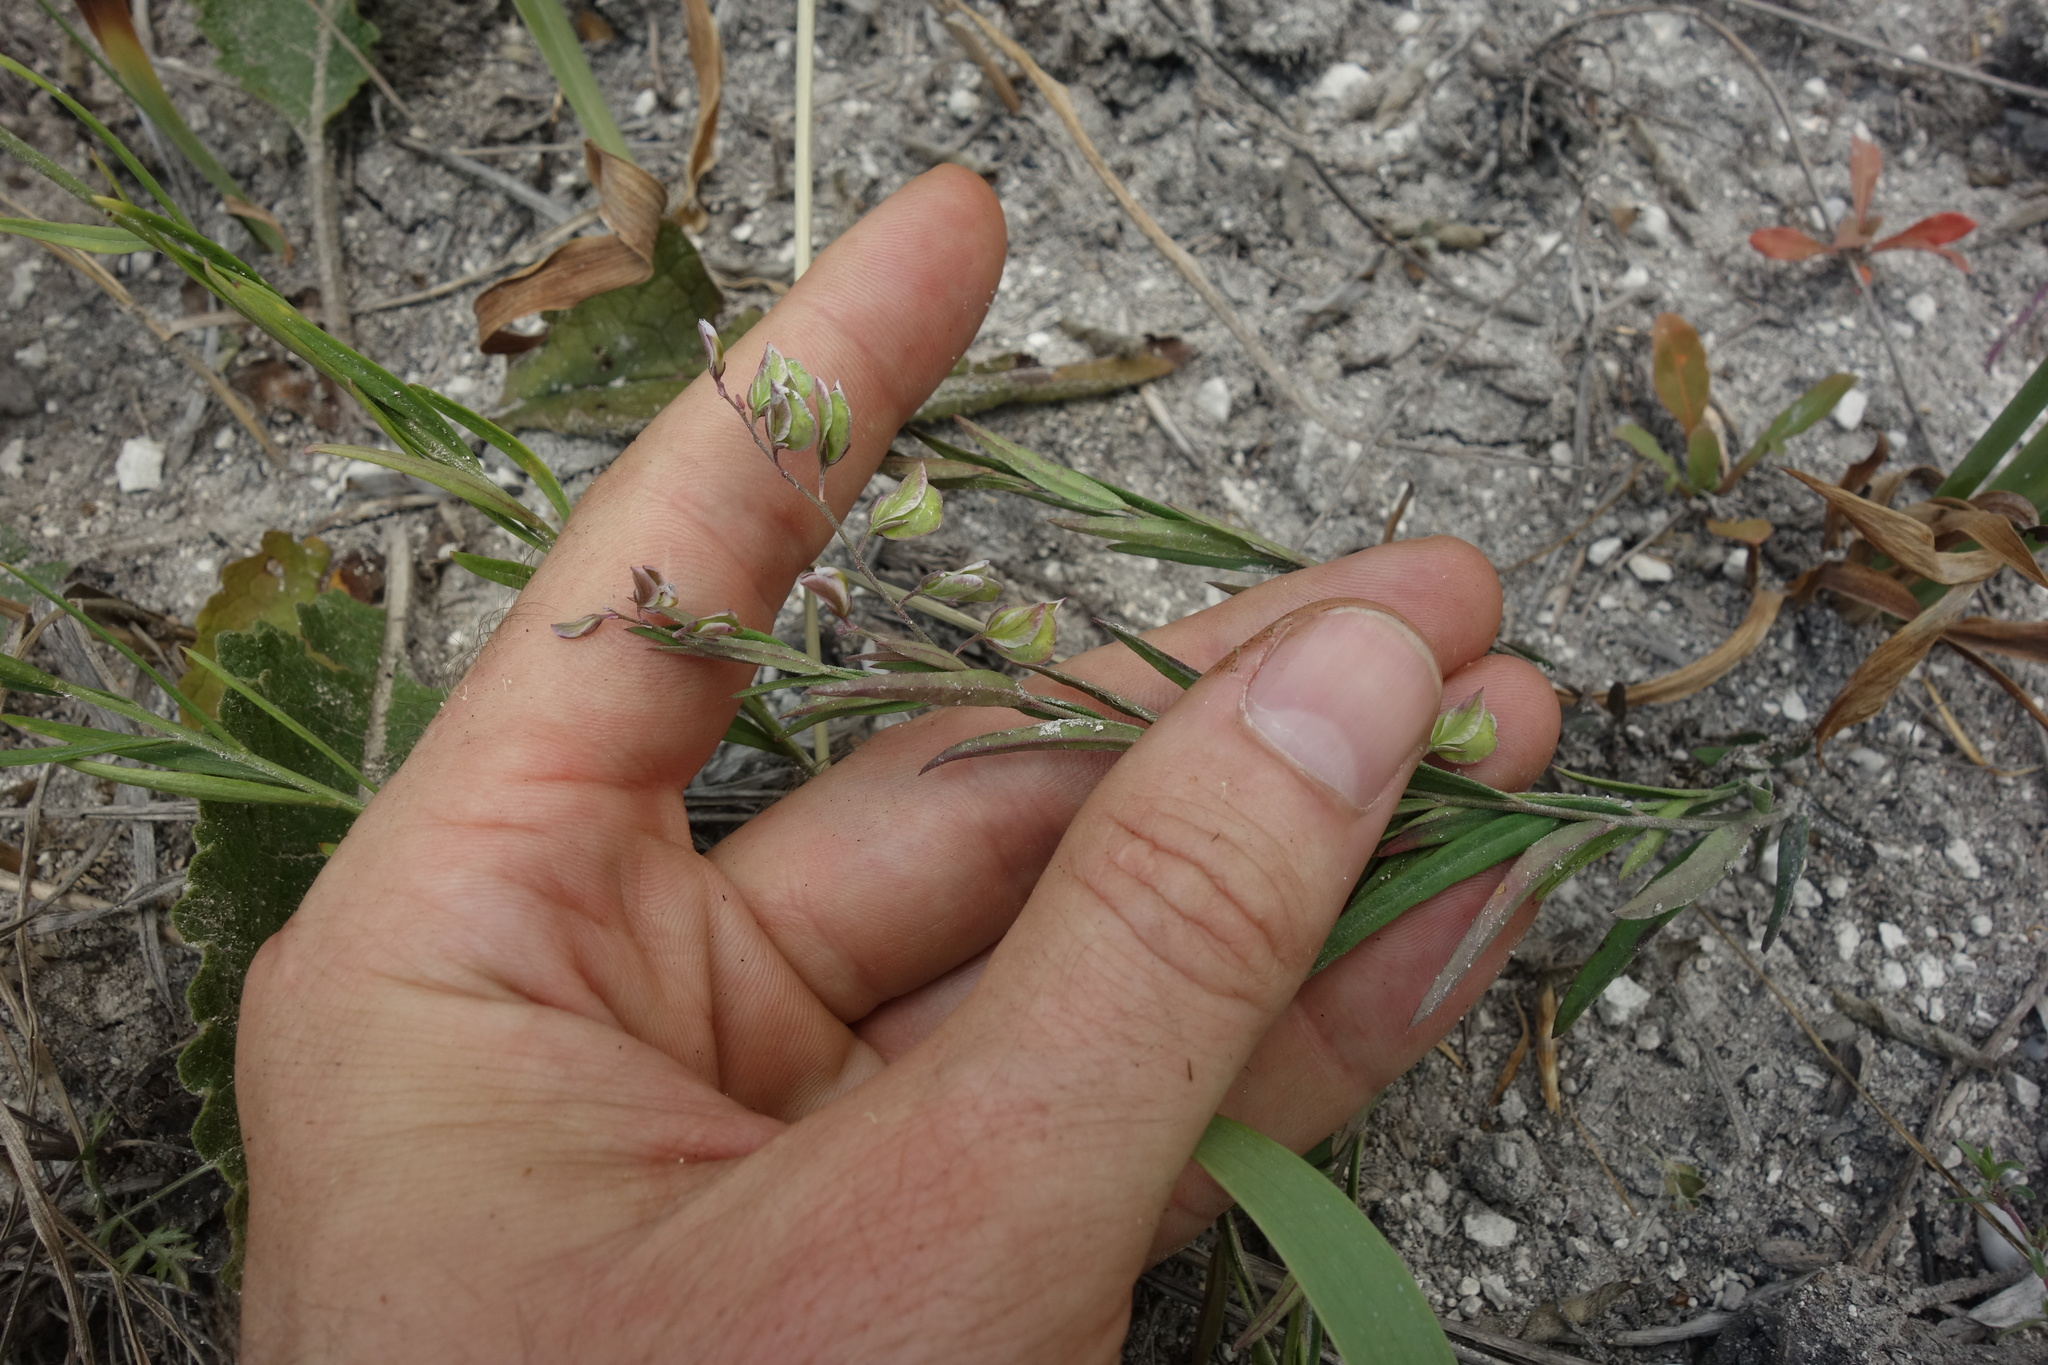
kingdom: Plantae
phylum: Tracheophyta
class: Magnoliopsida
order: Fabales
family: Polygalaceae
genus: Polygala
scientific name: Polygala sibirica
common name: Siberian polygala
